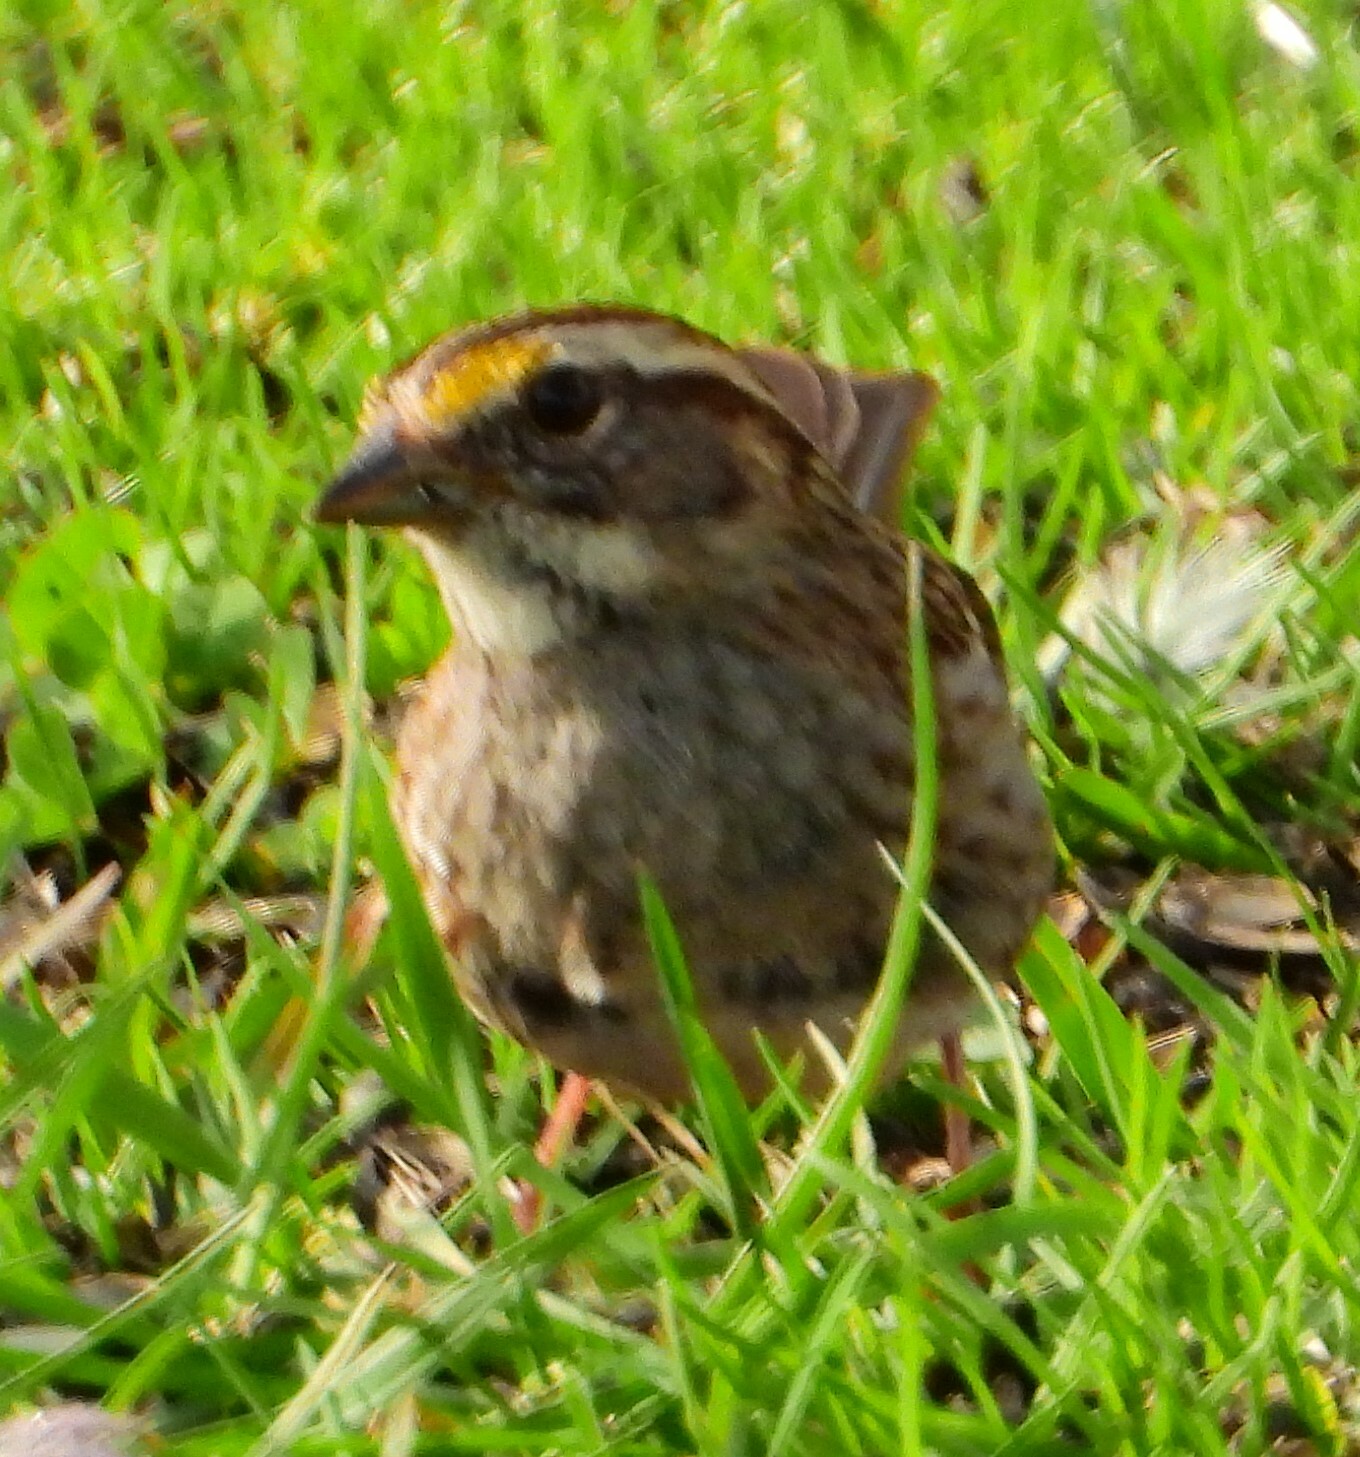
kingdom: Animalia
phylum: Chordata
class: Aves
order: Passeriformes
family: Passerellidae
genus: Zonotrichia
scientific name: Zonotrichia albicollis
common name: White-throated sparrow
